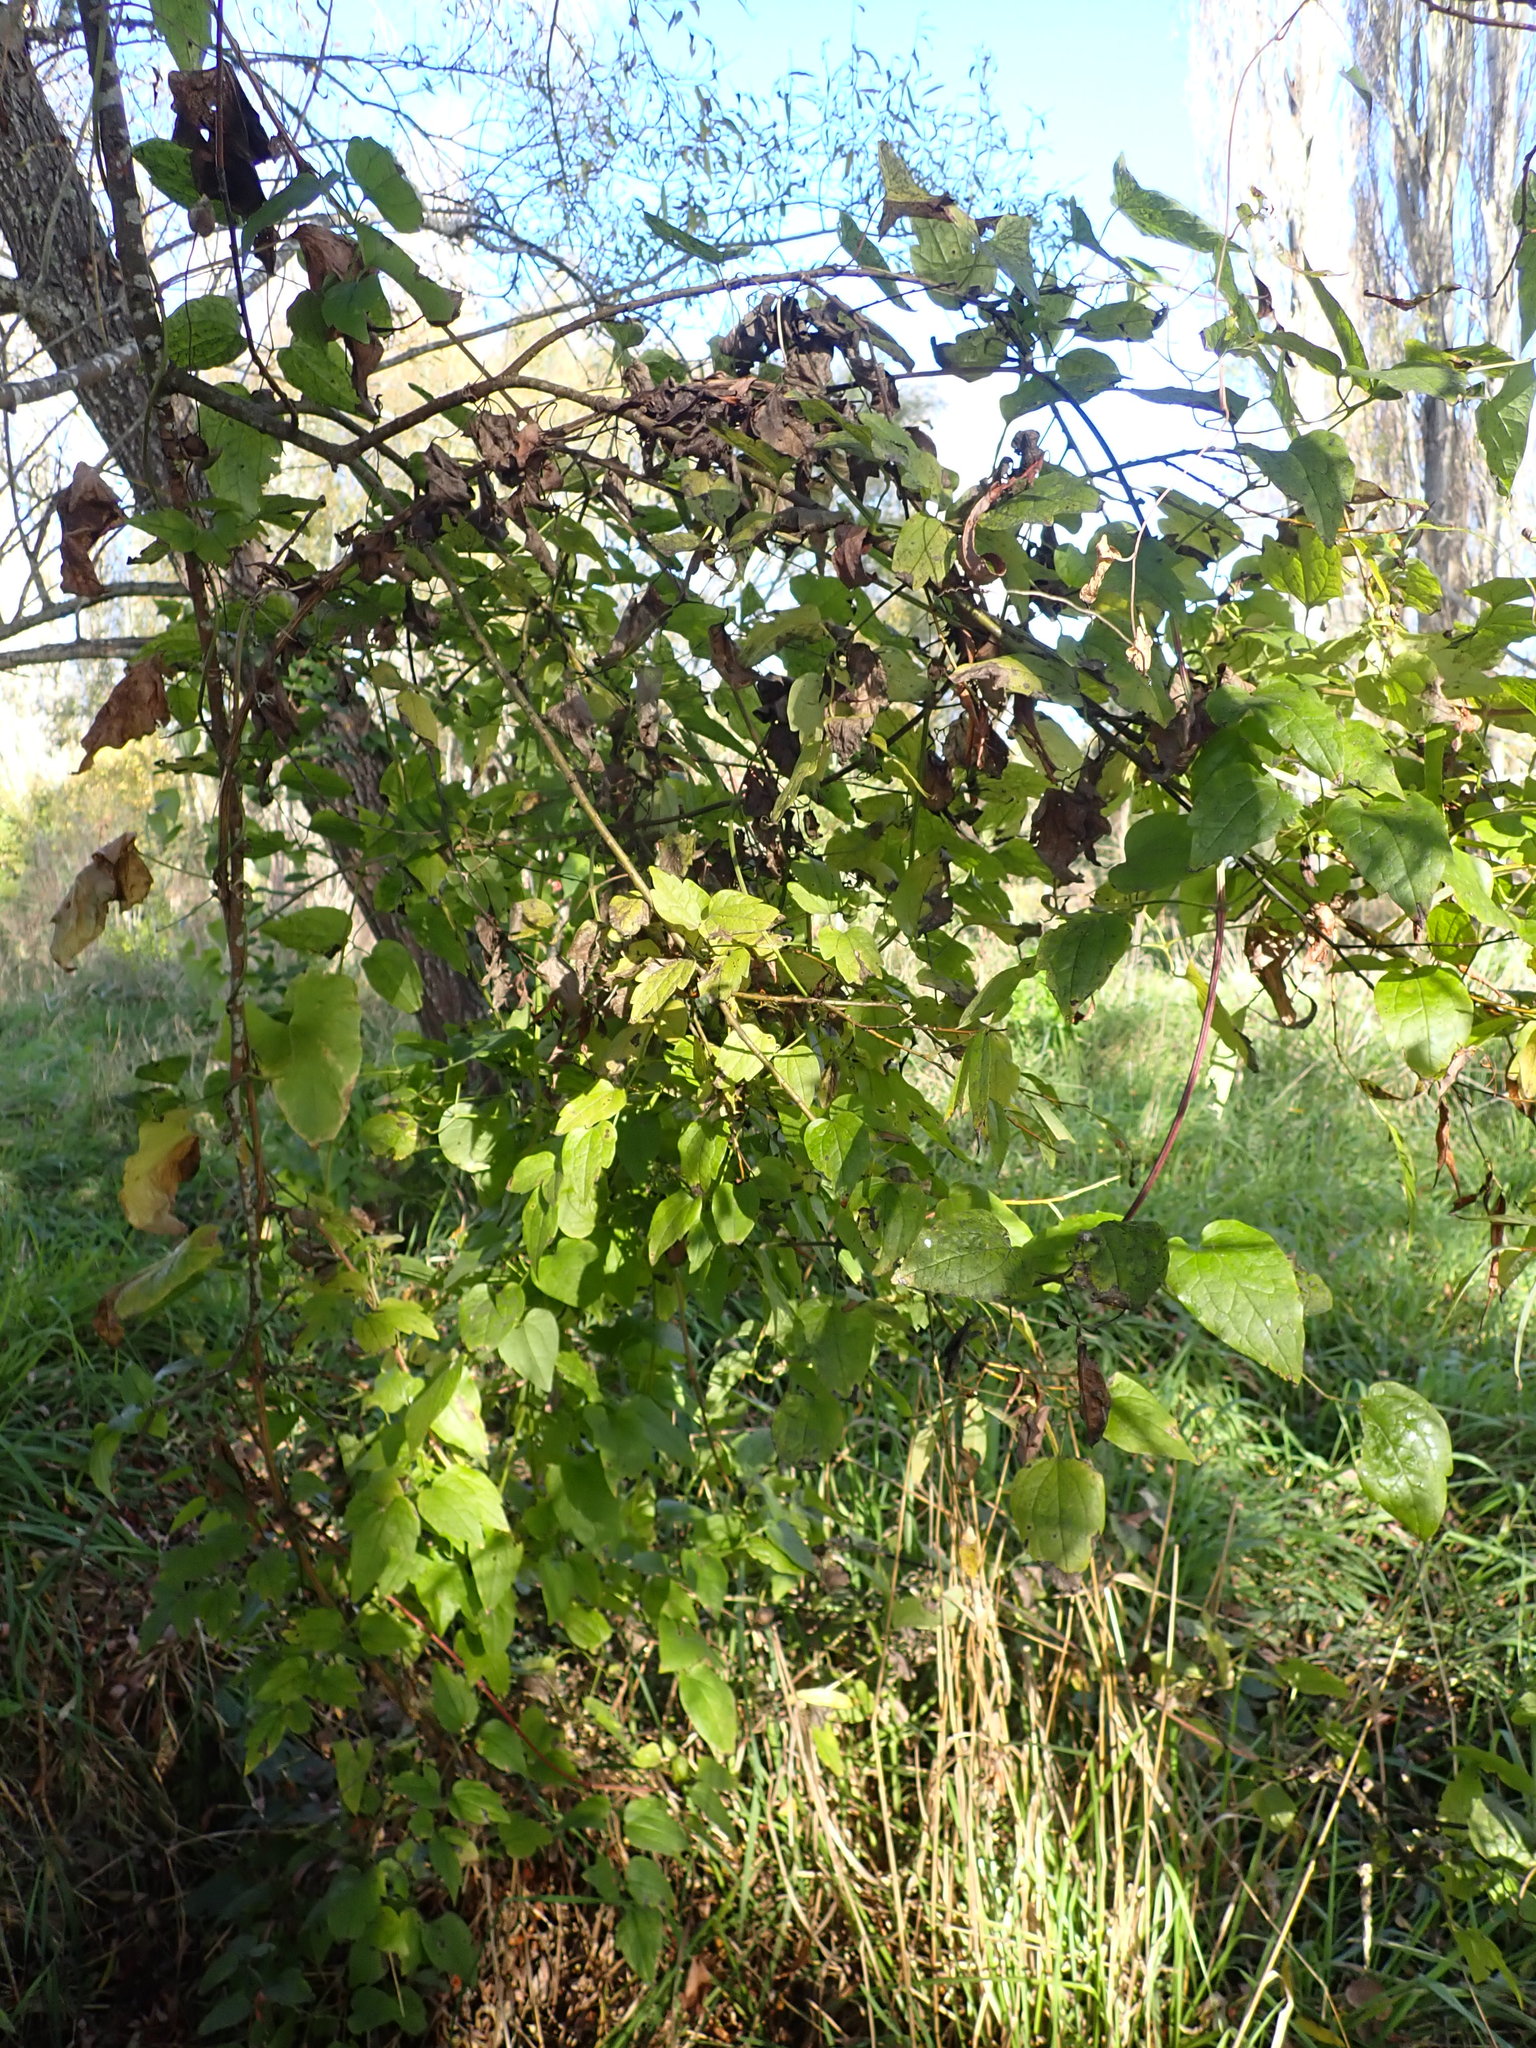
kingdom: Plantae
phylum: Tracheophyta
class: Magnoliopsida
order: Ranunculales
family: Ranunculaceae
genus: Clematis
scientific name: Clematis vitalba
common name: Evergreen clematis
